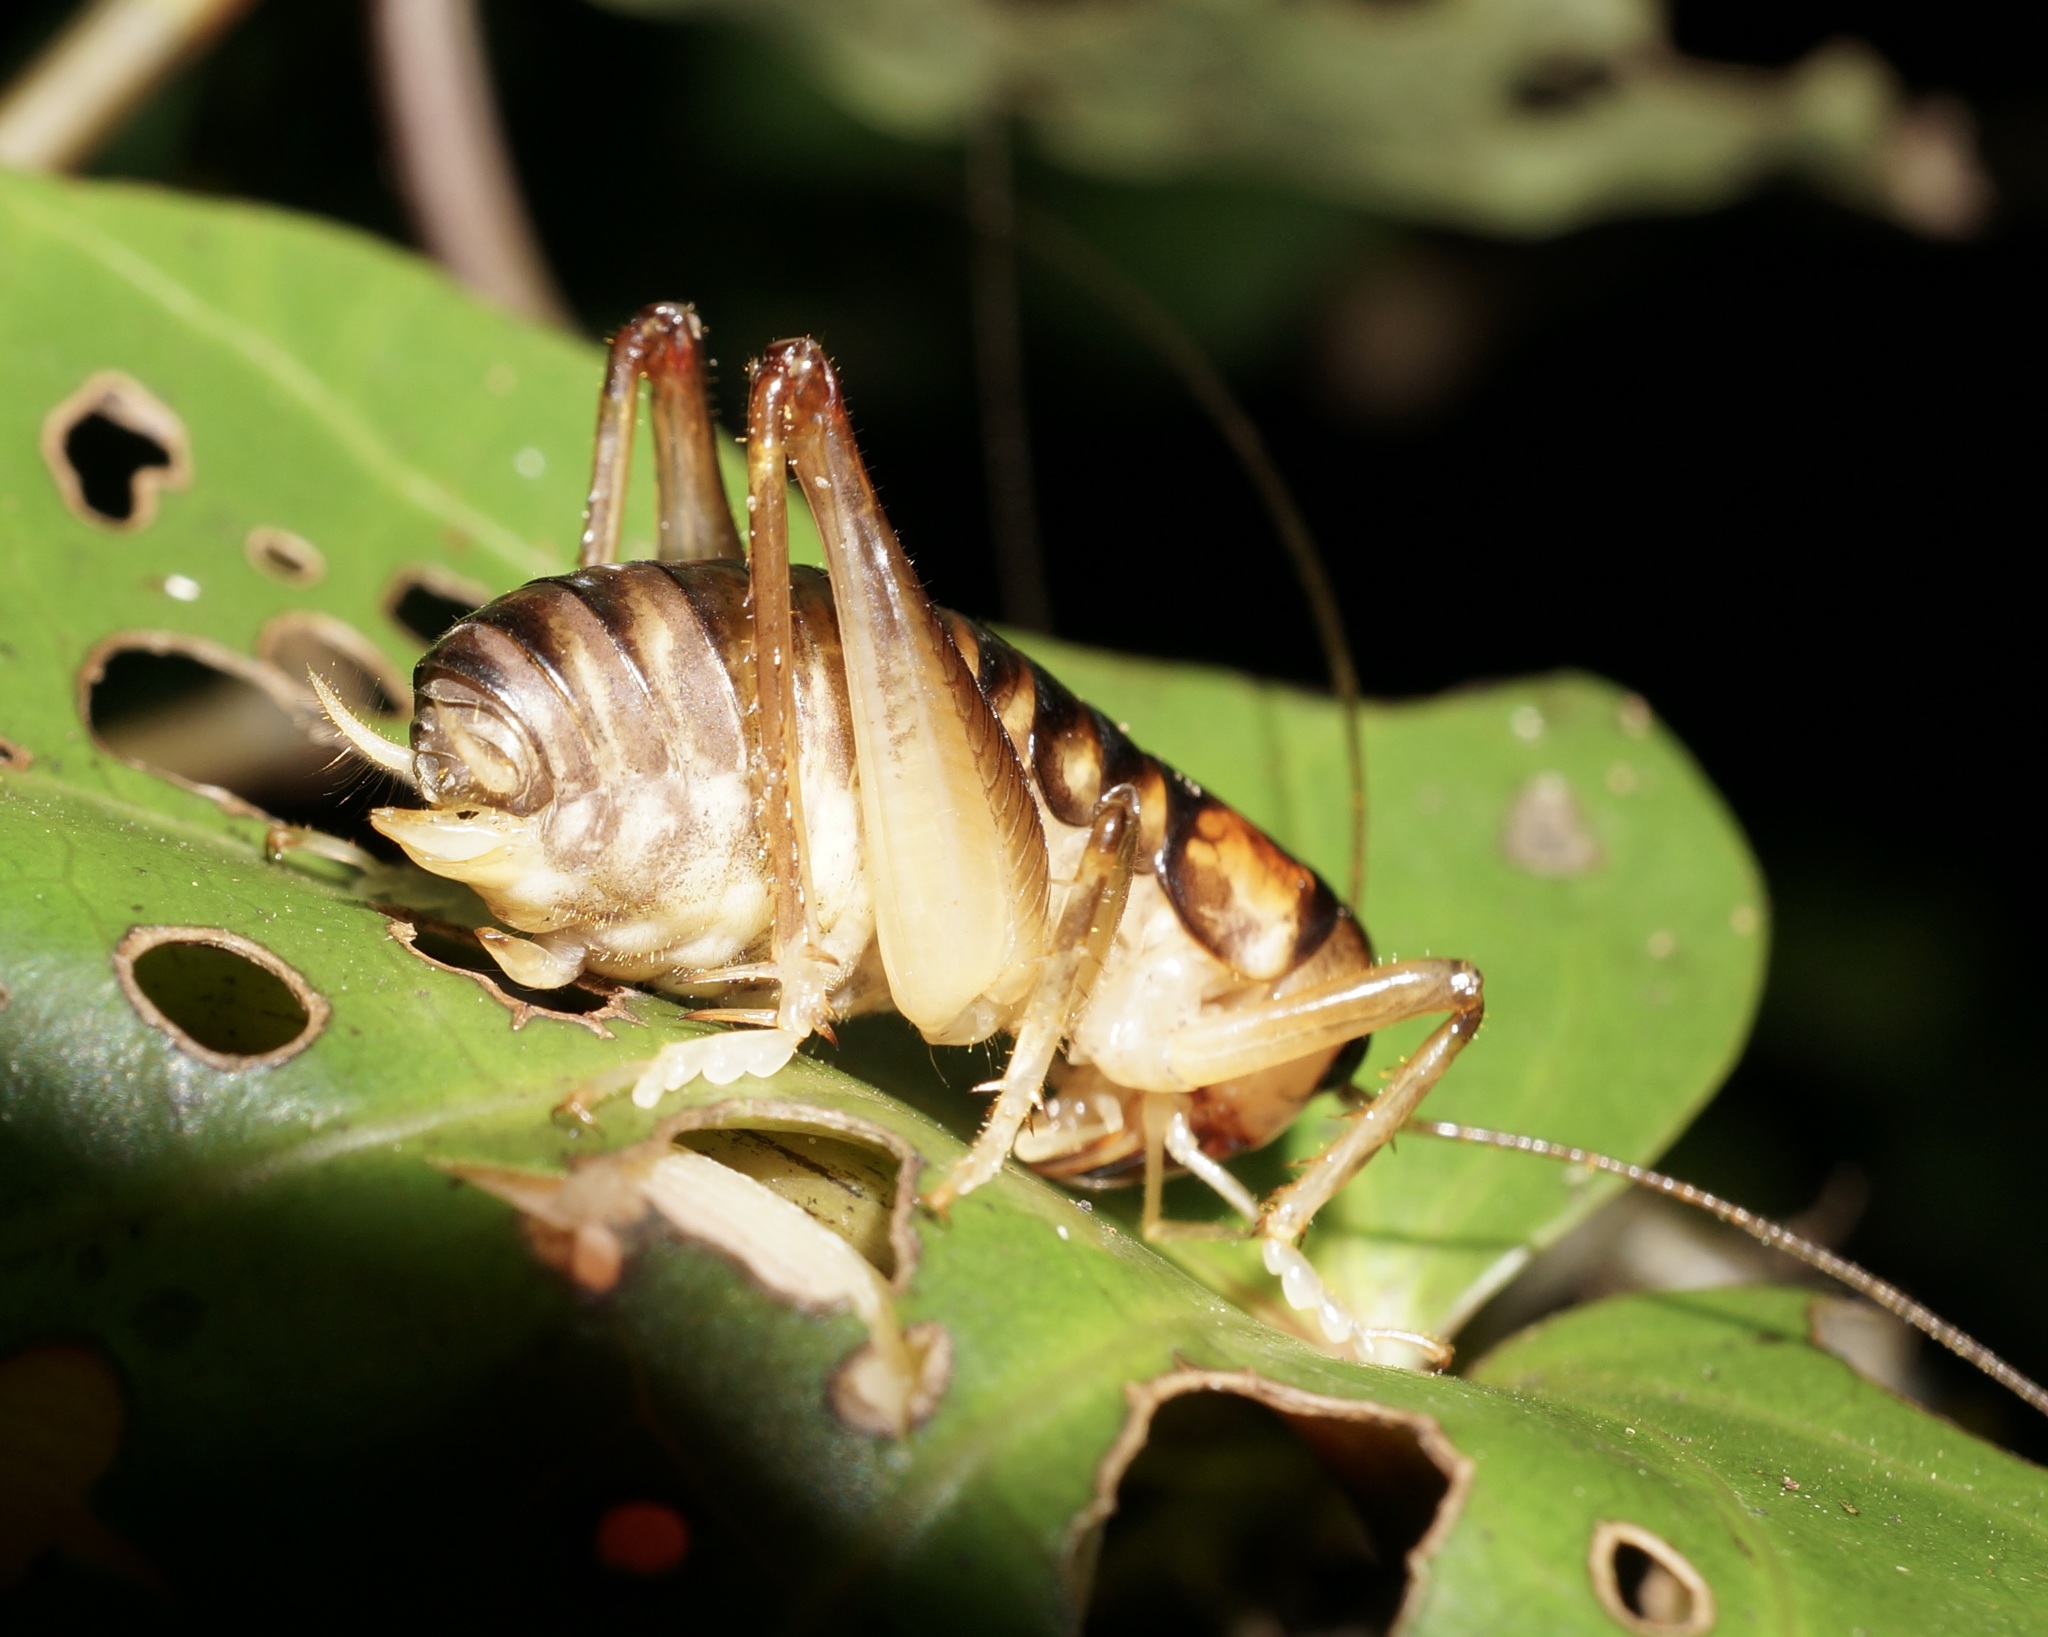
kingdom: Animalia
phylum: Arthropoda
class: Insecta
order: Orthoptera
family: Anostostomatidae
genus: Hemiandrus
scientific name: Hemiandrus pallitarsis
